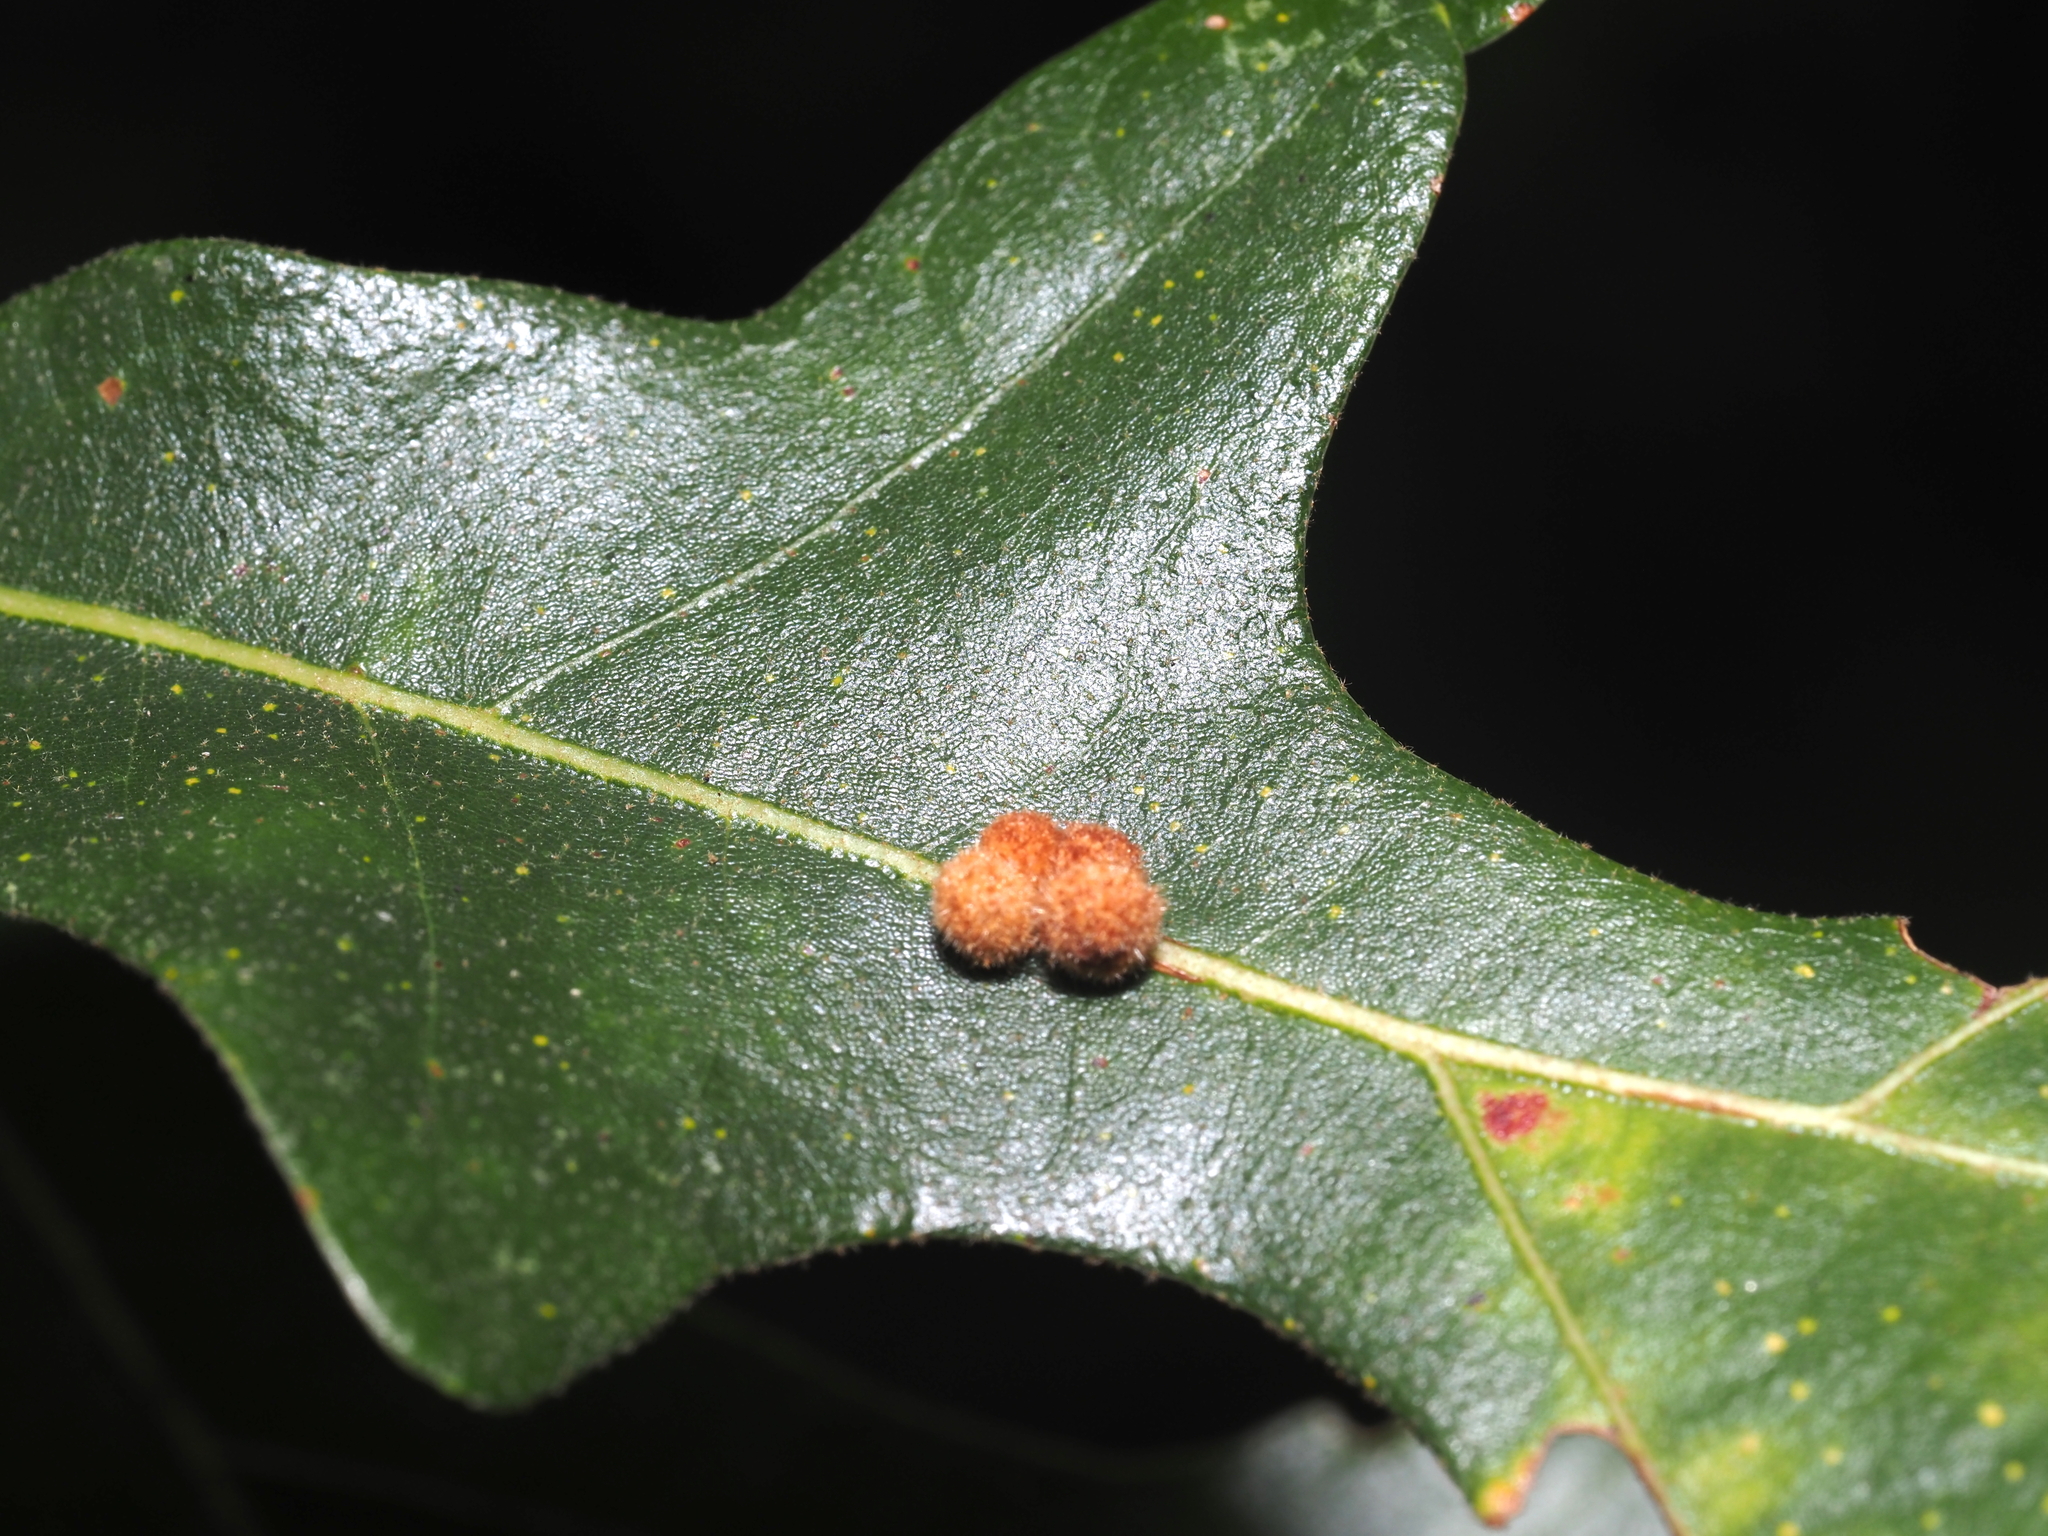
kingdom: Animalia
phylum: Arthropoda
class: Insecta
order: Hymenoptera
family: Cynipidae
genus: Biorhiza
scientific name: Biorhiza Sphaeroteras carolina
